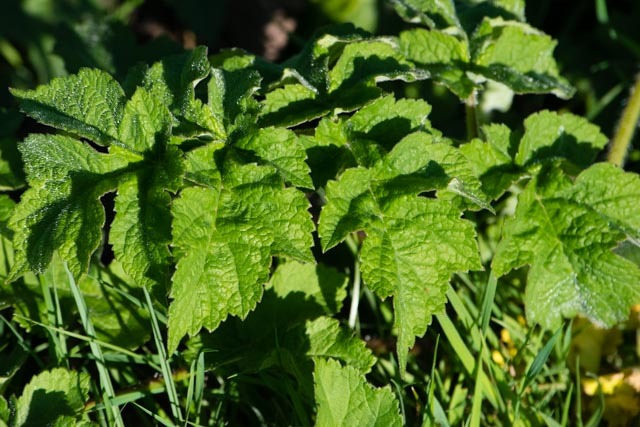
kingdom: Plantae
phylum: Tracheophyta
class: Magnoliopsida
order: Apiales
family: Apiaceae
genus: Heracleum
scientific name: Heracleum sphondylium
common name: Hogweed
